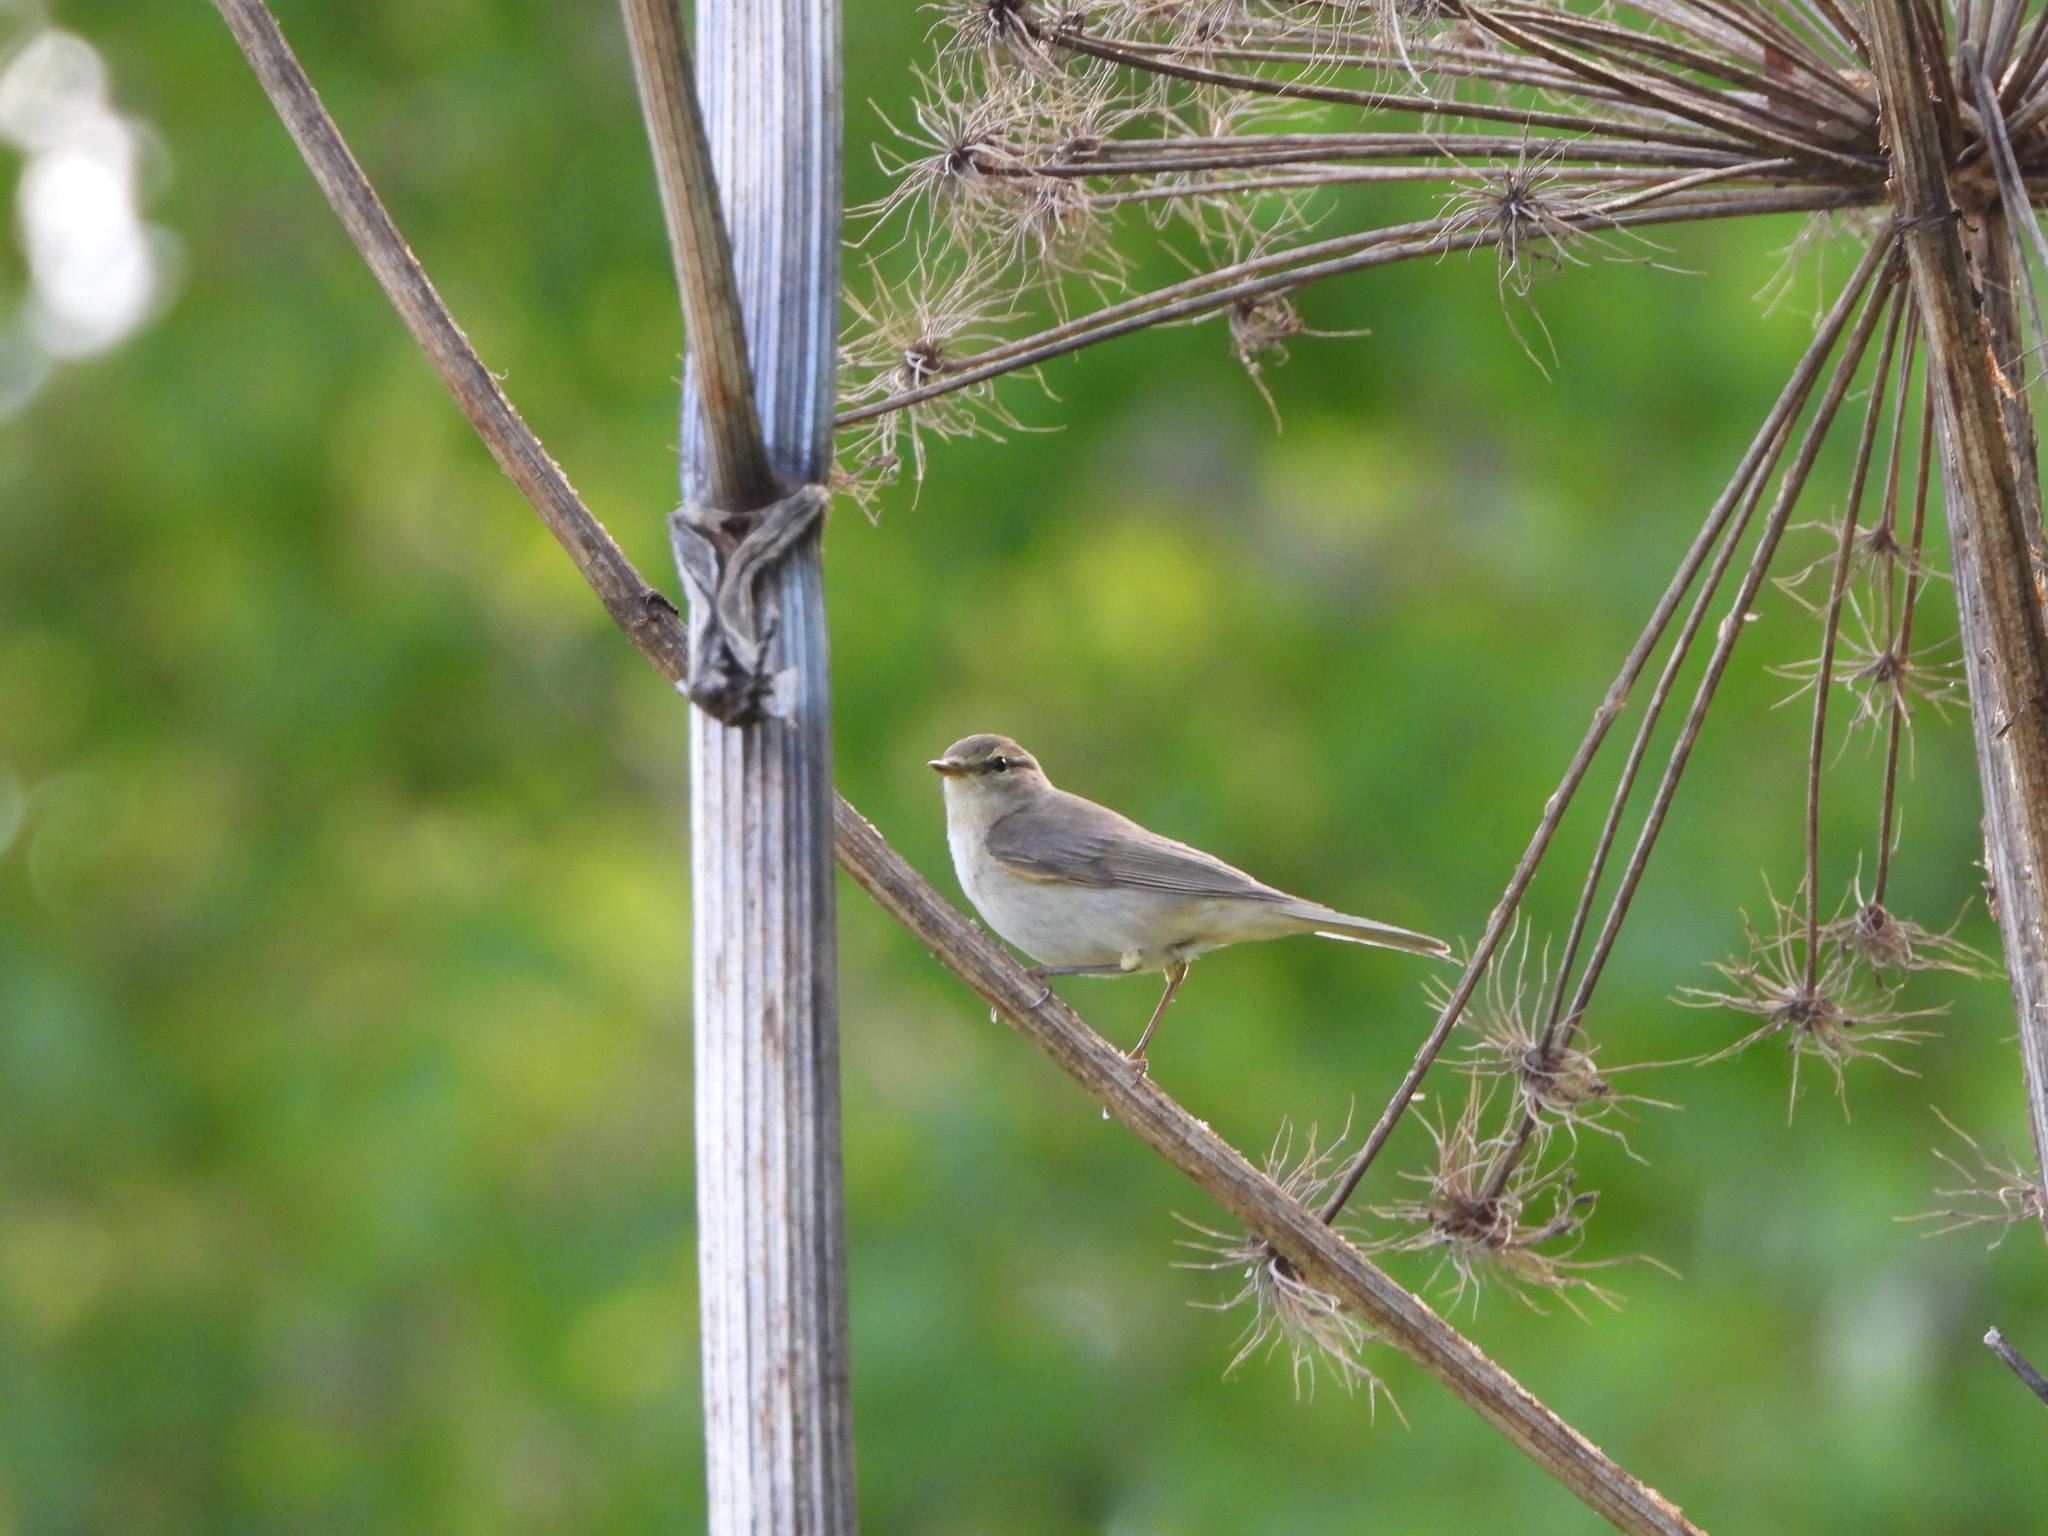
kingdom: Animalia
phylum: Chordata
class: Aves
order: Passeriformes
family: Acrocephalidae
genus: Iduna
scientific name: Iduna caligata
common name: Booted warbler
